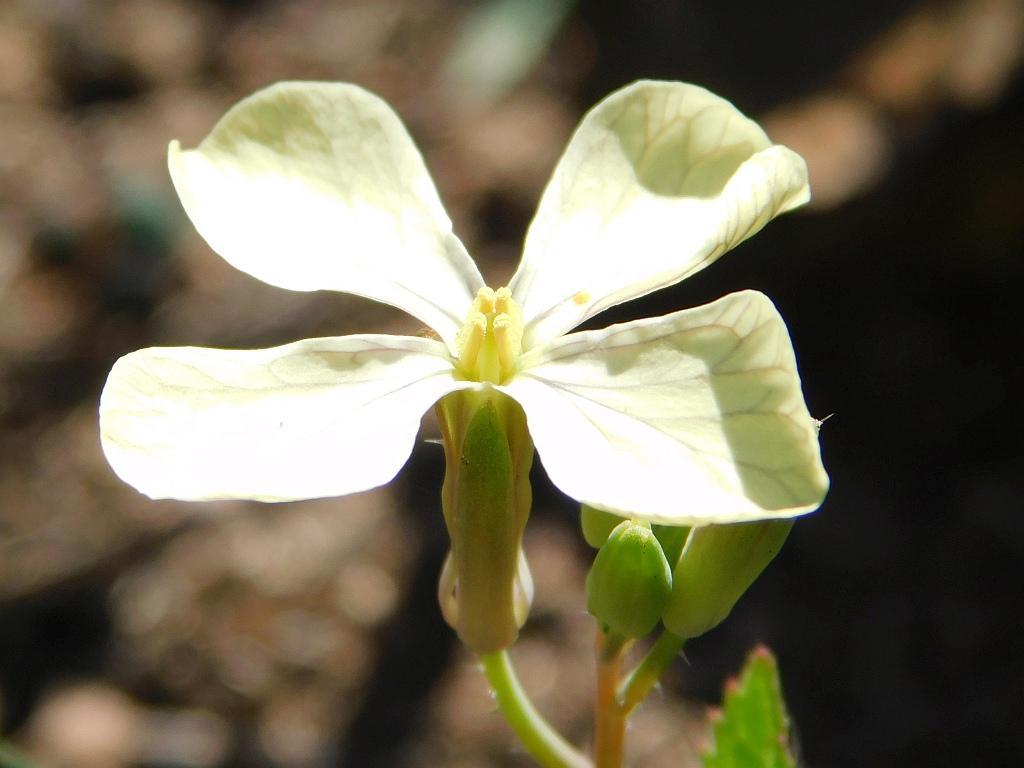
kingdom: Plantae
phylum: Tracheophyta
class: Magnoliopsida
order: Brassicales
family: Brassicaceae
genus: Raphanus
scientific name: Raphanus raphanistrum
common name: Wild radish
